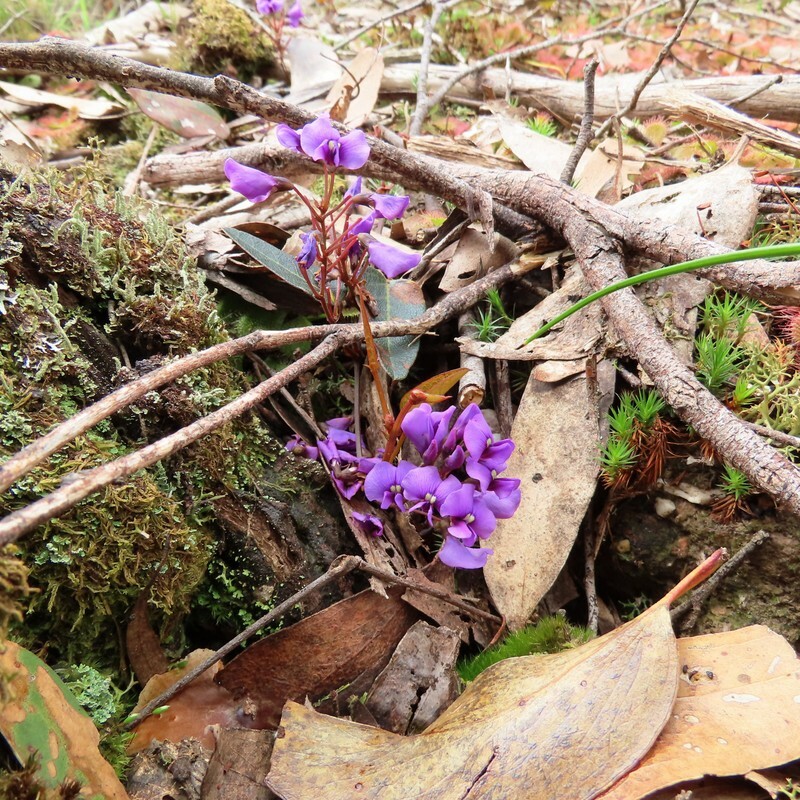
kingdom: Plantae
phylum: Tracheophyta
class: Magnoliopsida
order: Fabales
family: Fabaceae
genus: Hardenbergia
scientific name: Hardenbergia violacea
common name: Coral-pea
